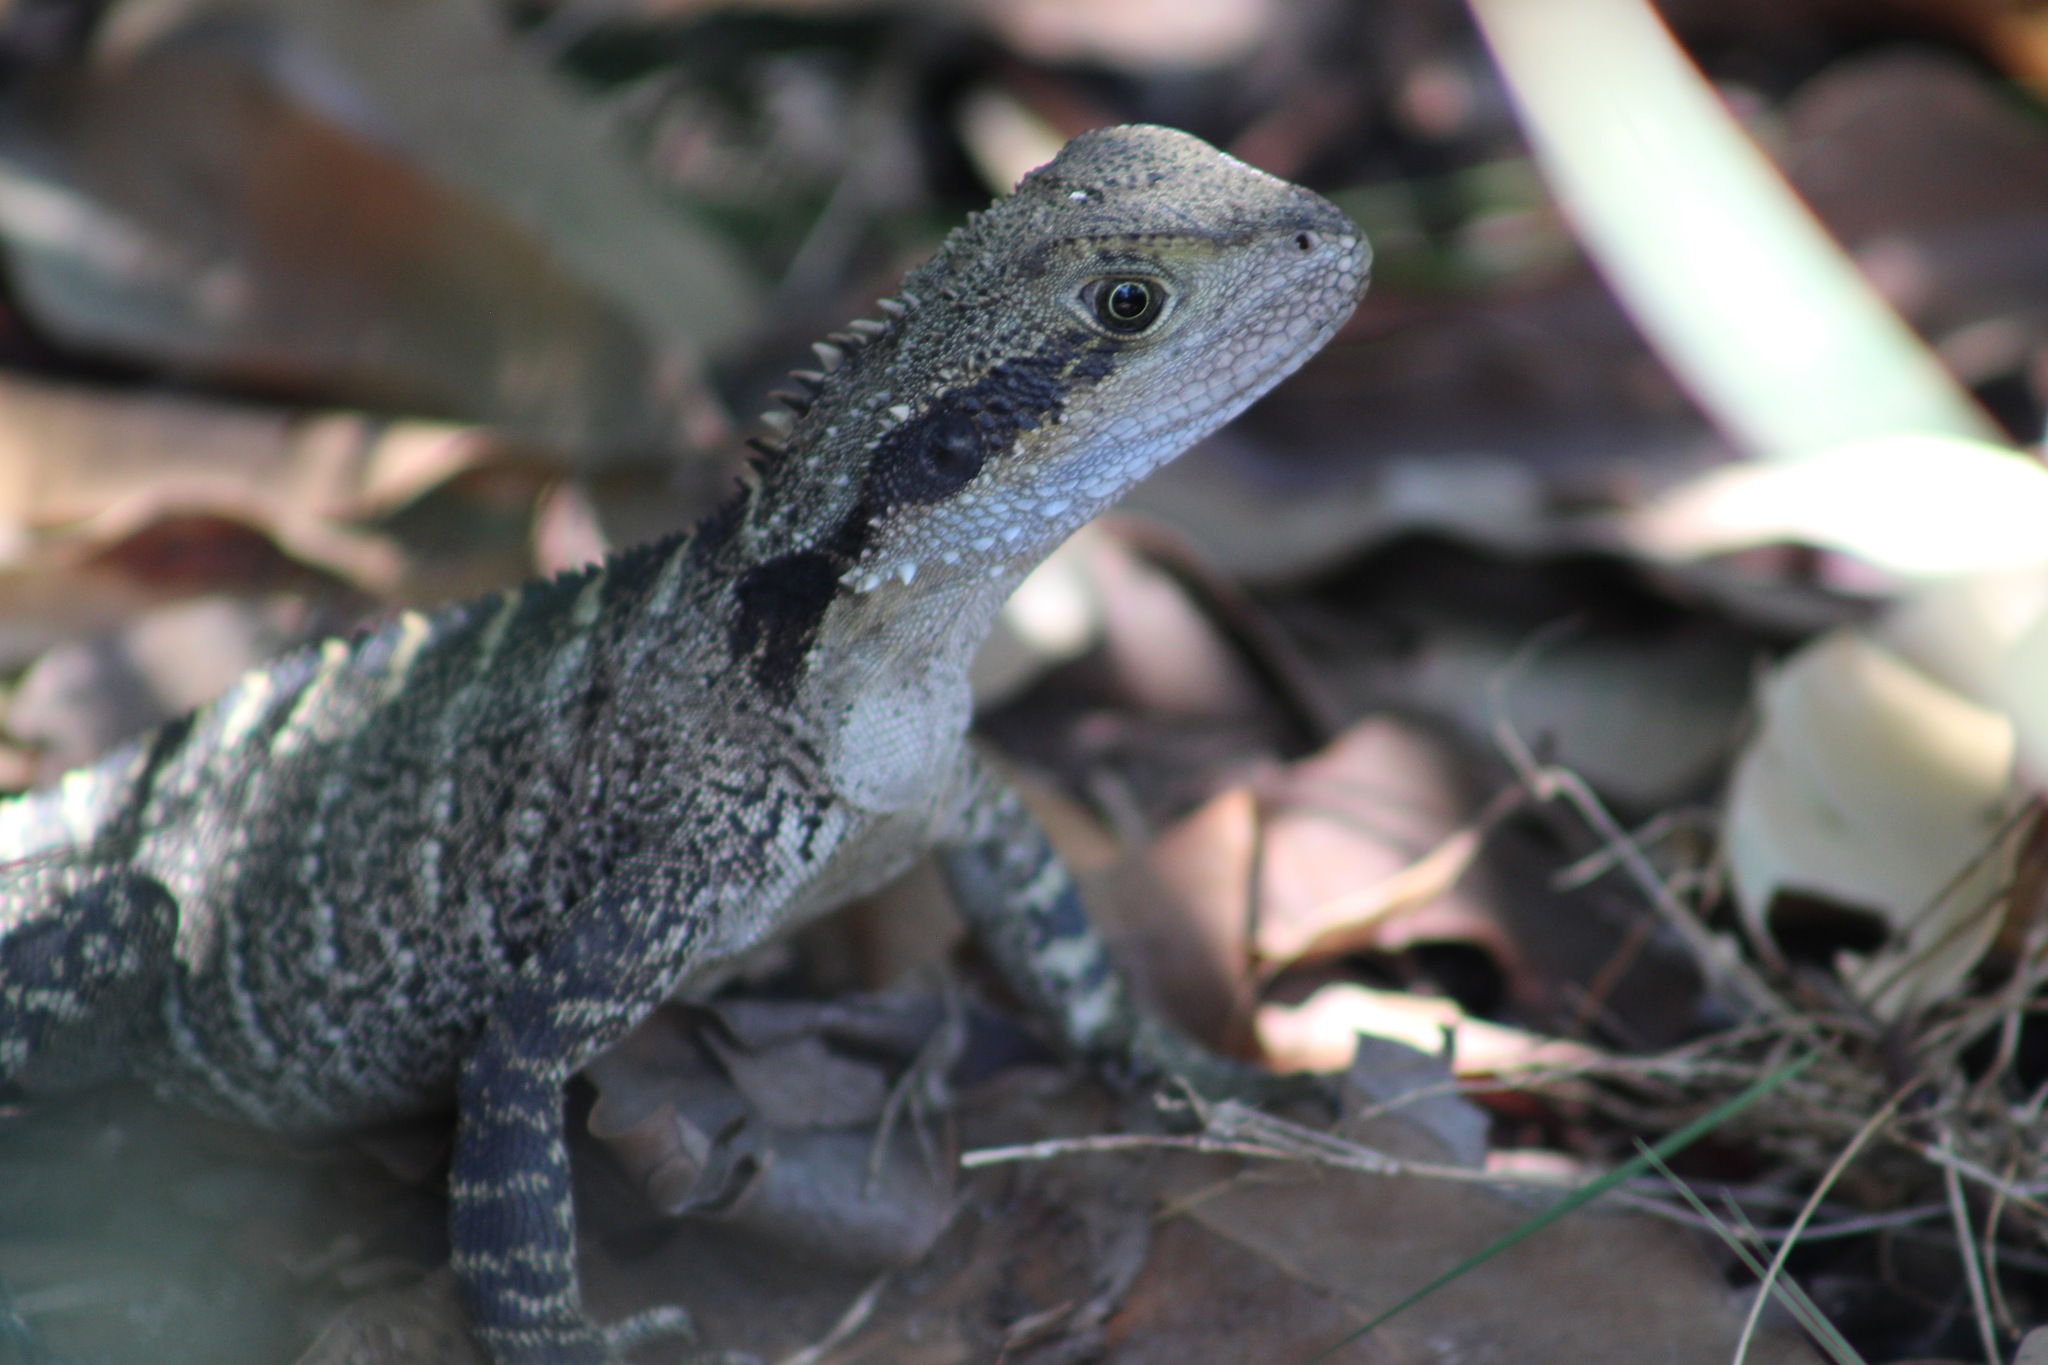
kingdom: Animalia
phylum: Chordata
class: Squamata
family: Agamidae
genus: Intellagama
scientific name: Intellagama lesueurii
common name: Eastern water dragon
